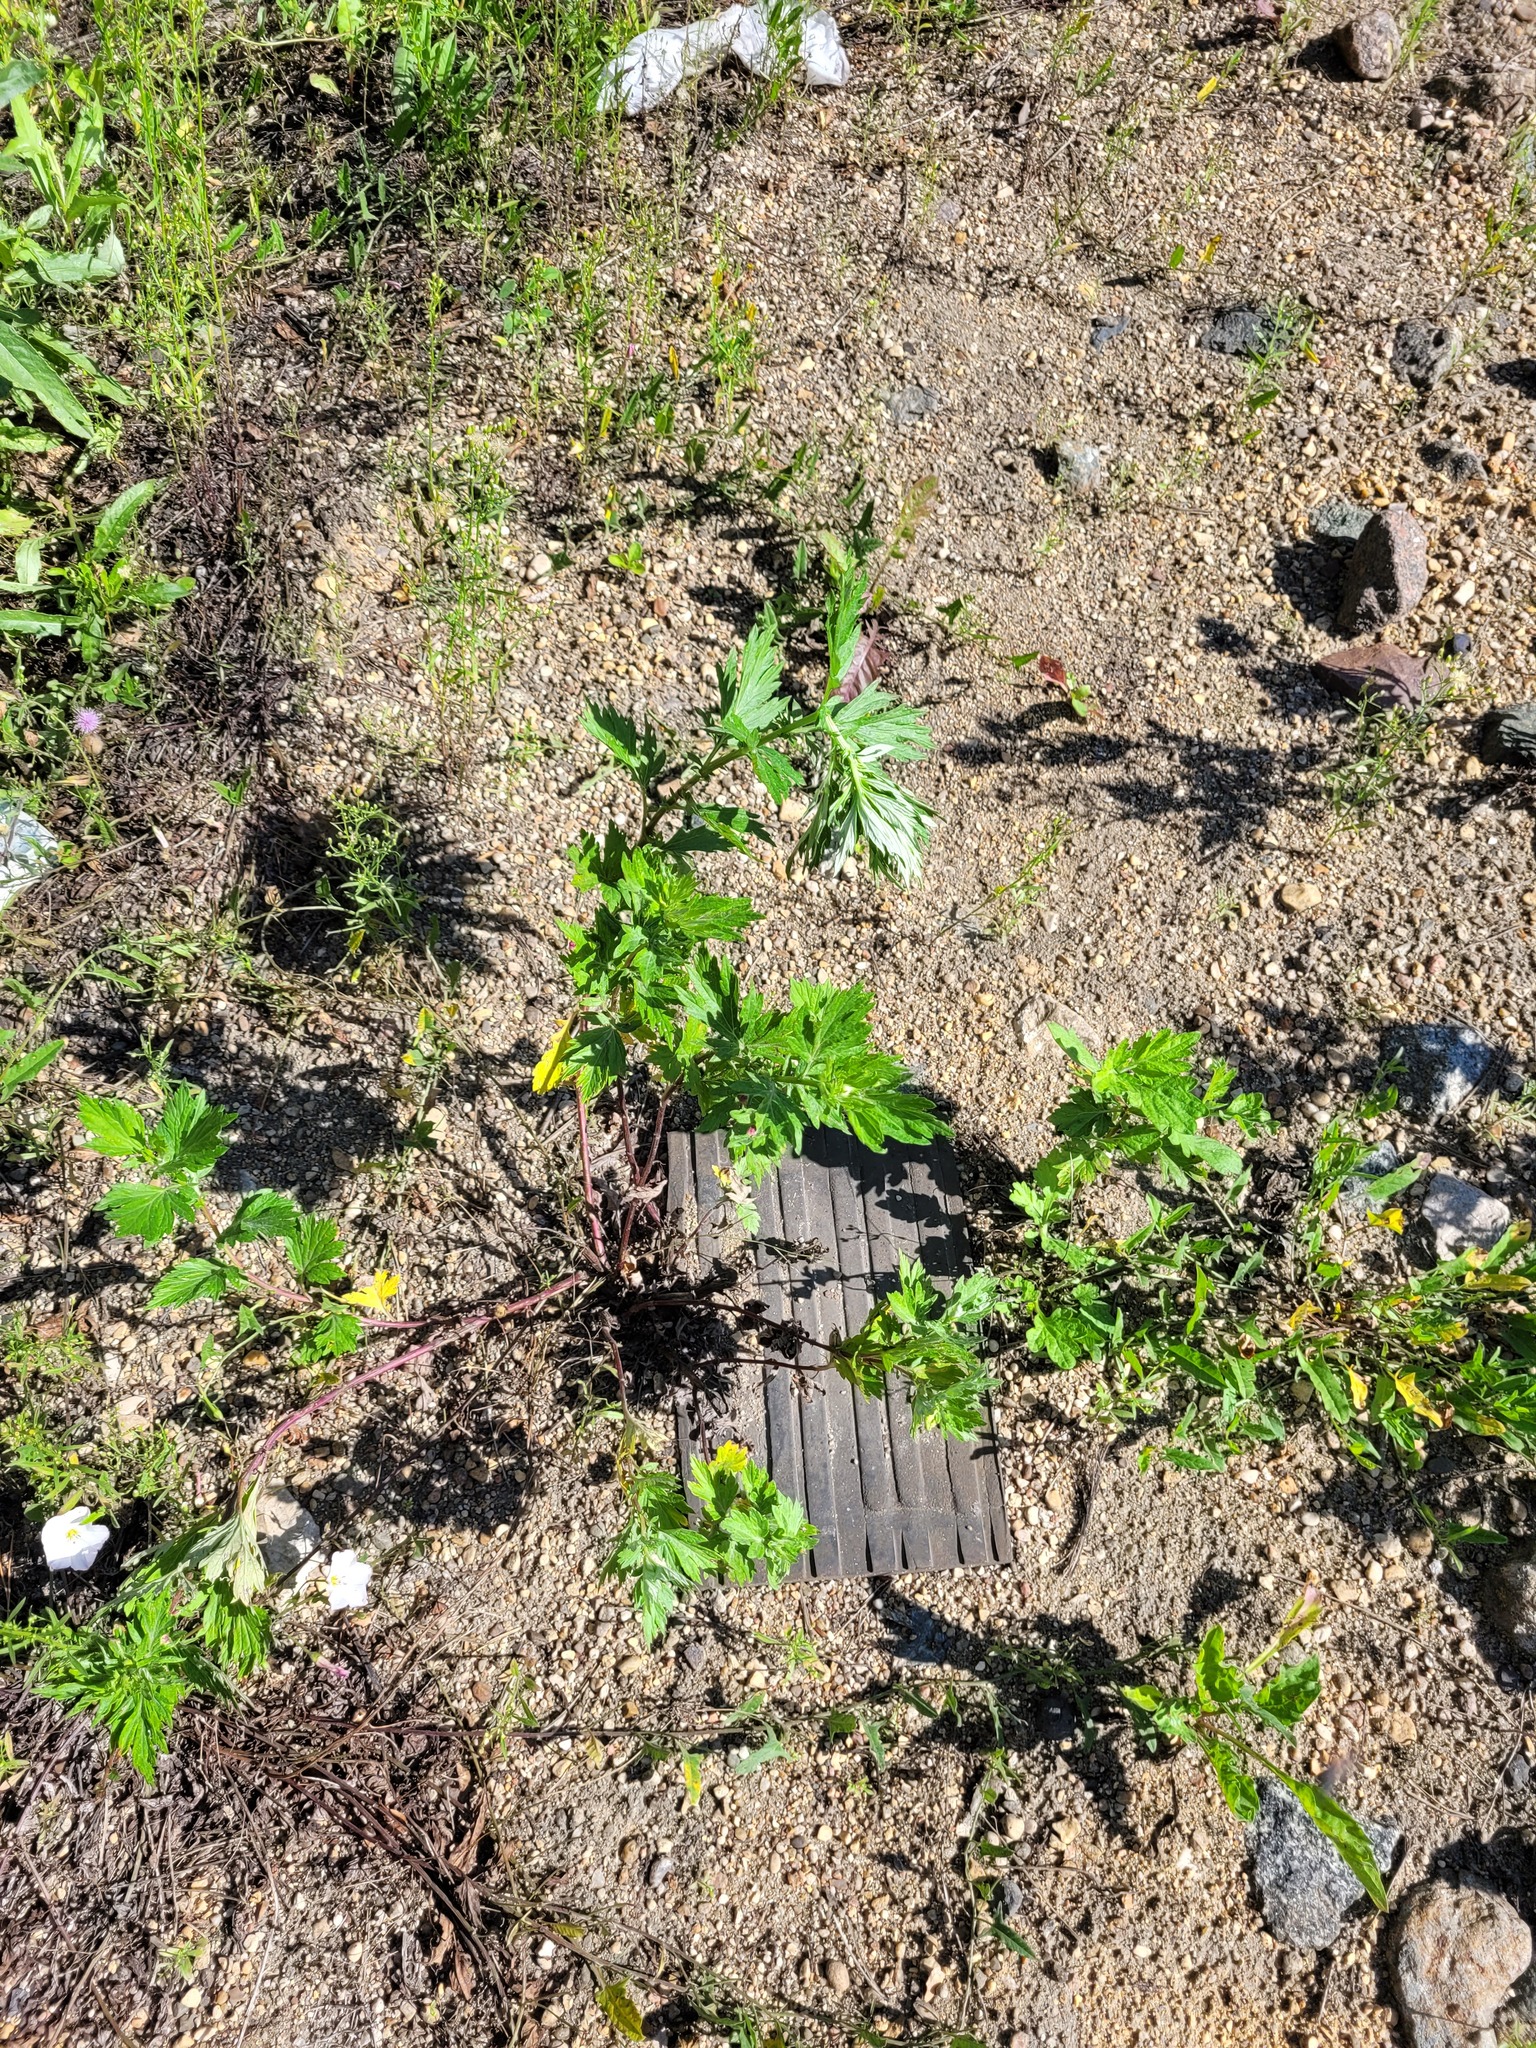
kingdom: Plantae
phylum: Tracheophyta
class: Magnoliopsida
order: Asterales
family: Asteraceae
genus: Artemisia
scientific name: Artemisia vulgaris
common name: Mugwort
